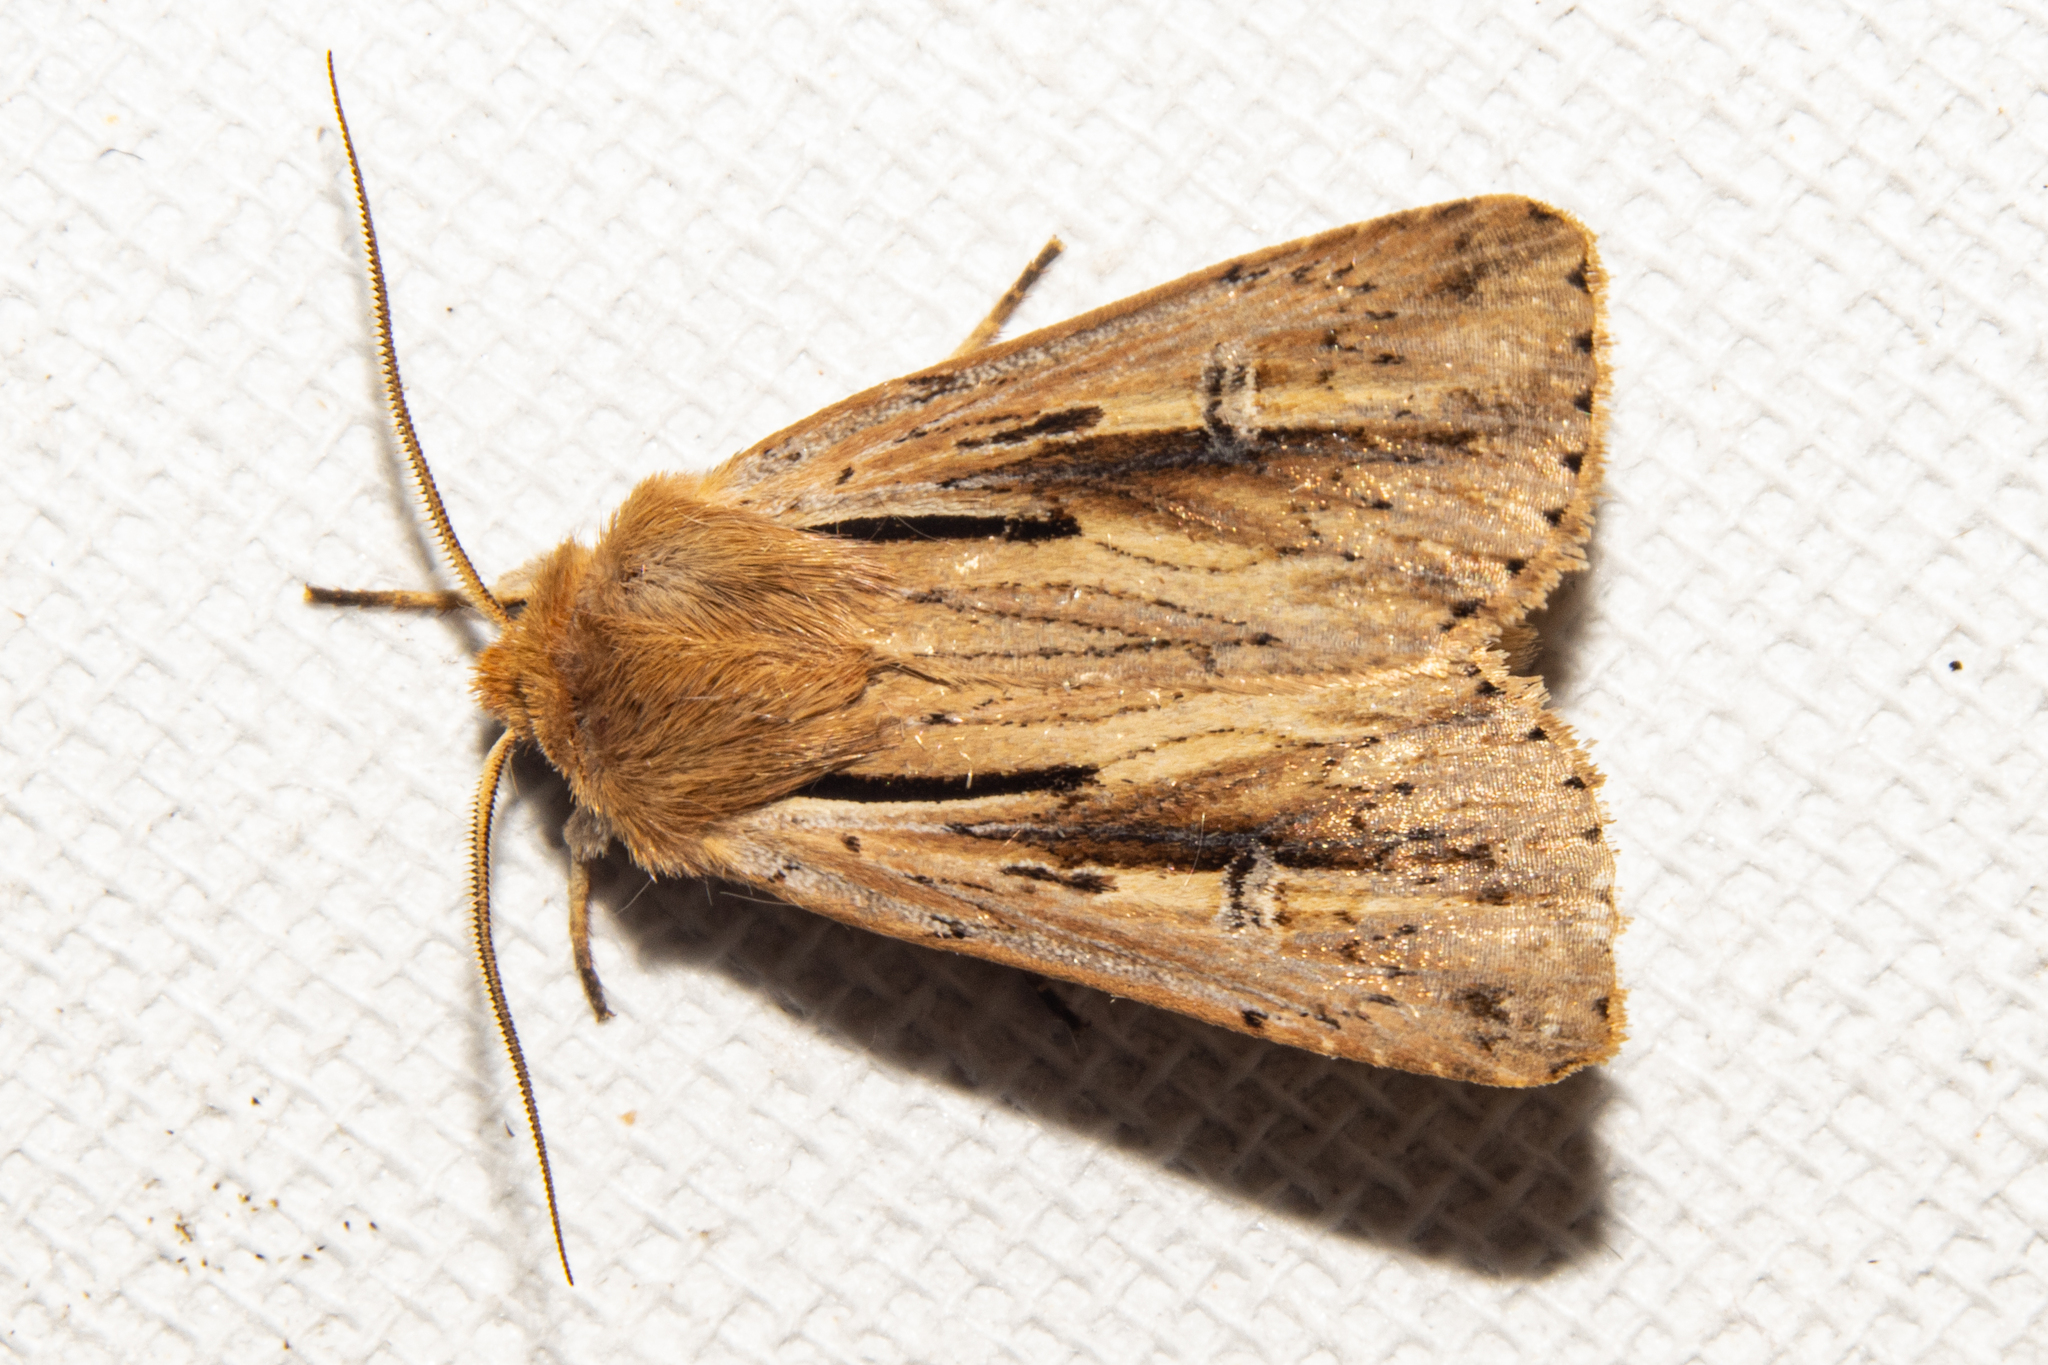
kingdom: Animalia
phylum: Arthropoda
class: Insecta
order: Lepidoptera
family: Noctuidae
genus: Ichneutica
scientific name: Ichneutica propria
